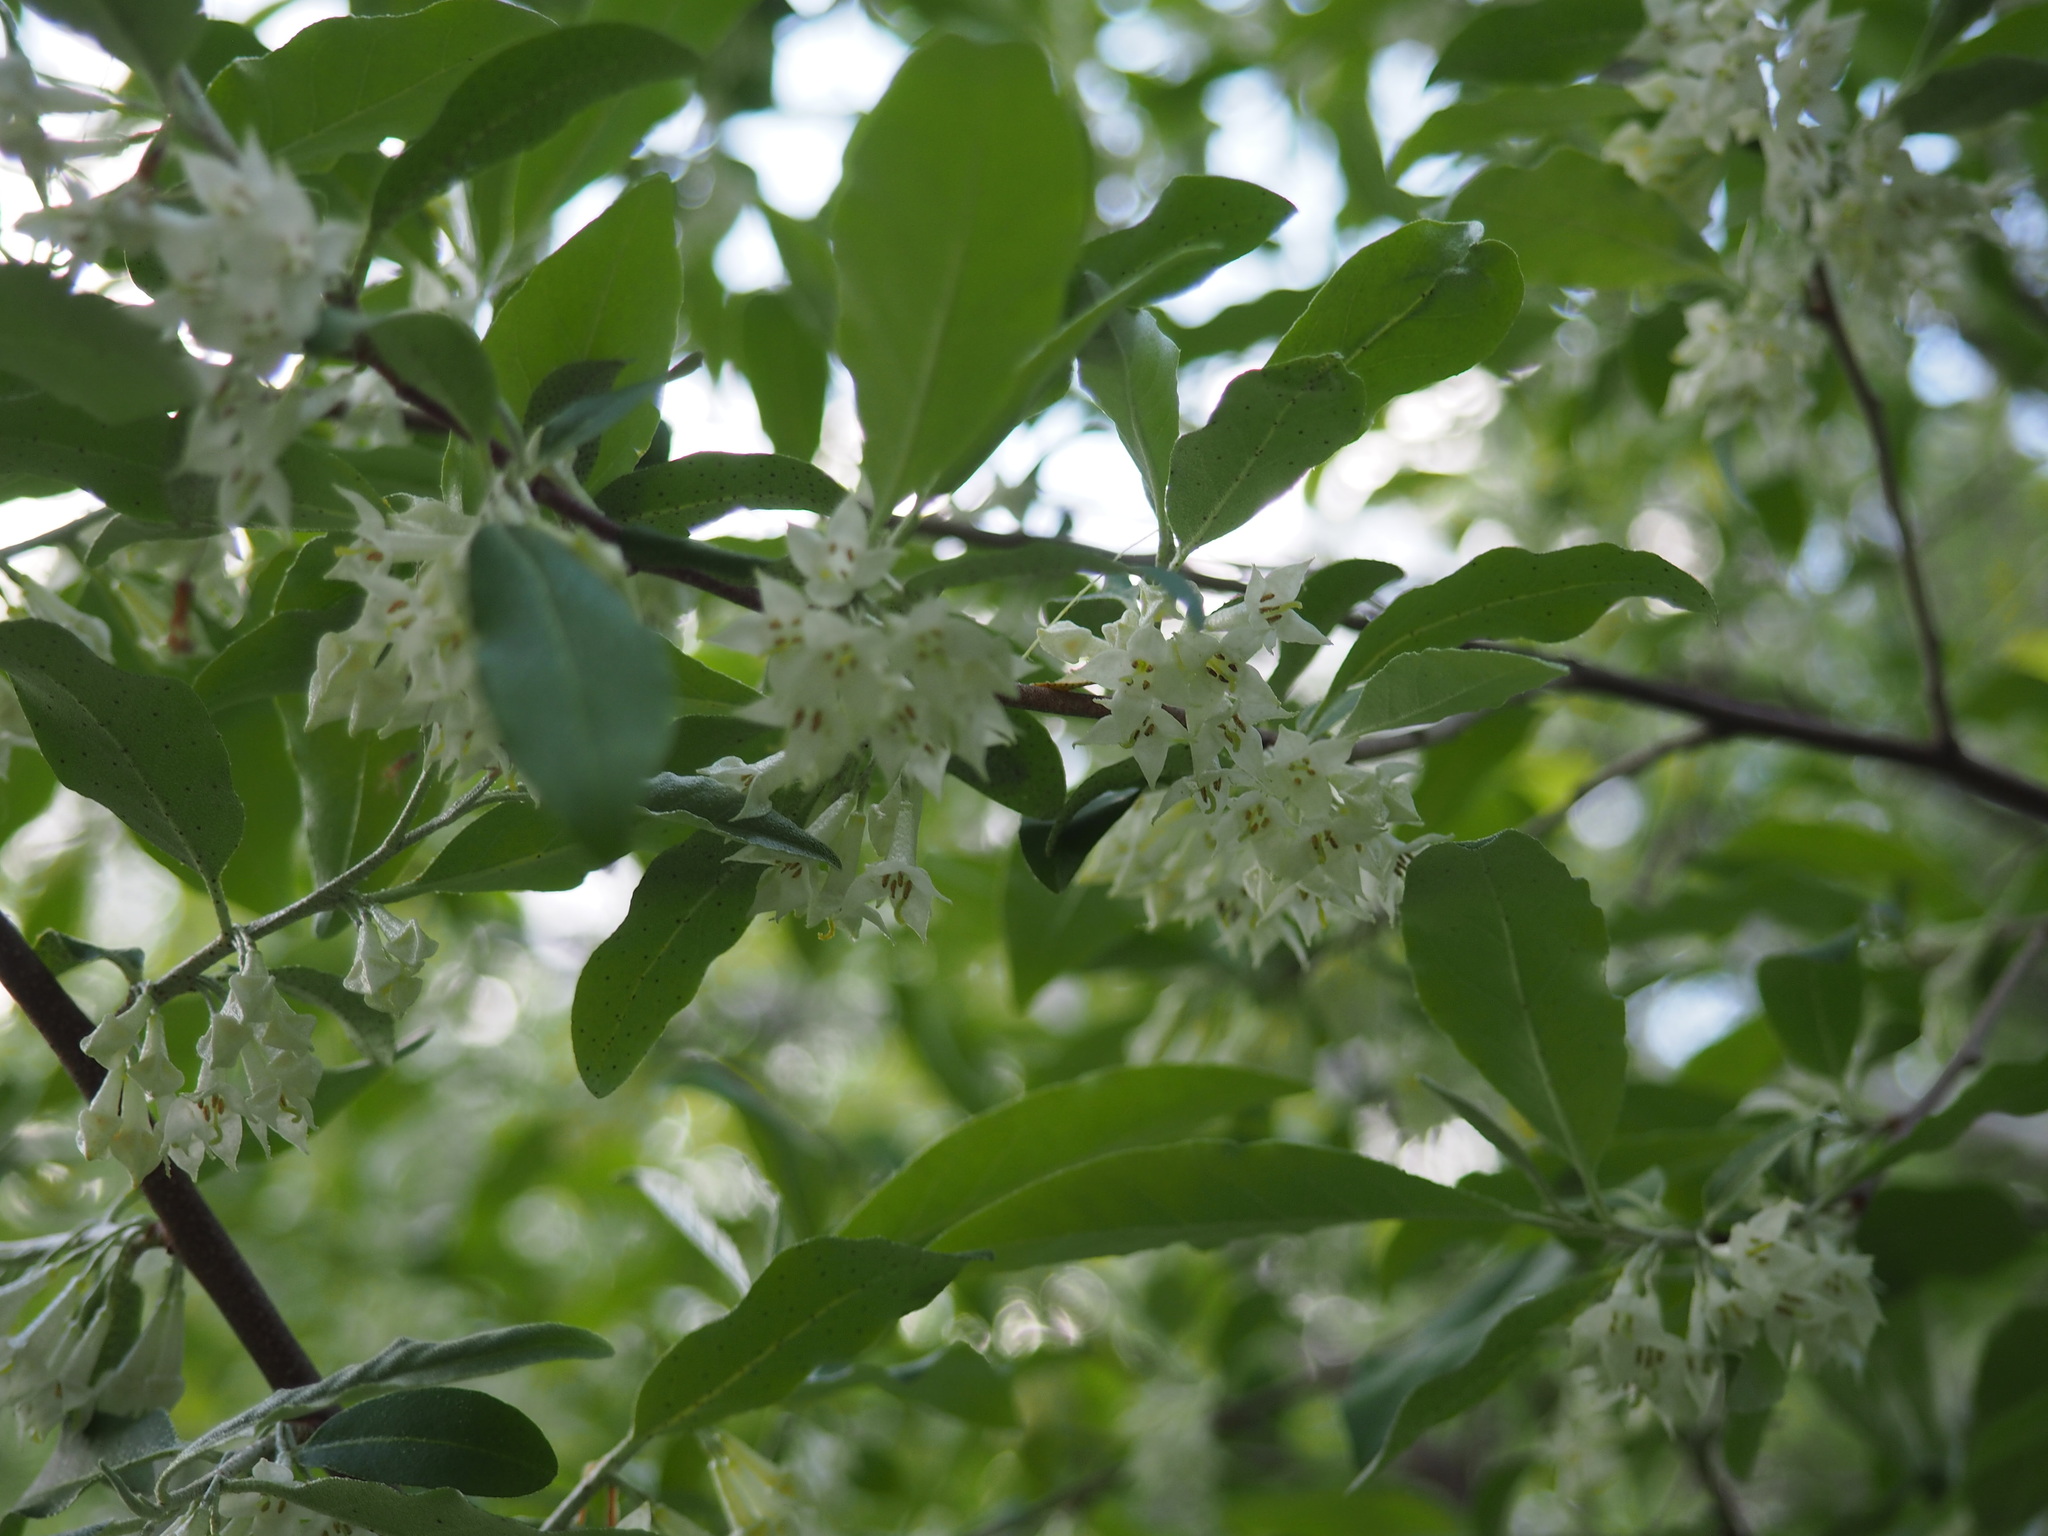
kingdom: Plantae
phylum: Tracheophyta
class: Magnoliopsida
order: Rosales
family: Elaeagnaceae
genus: Elaeagnus
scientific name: Elaeagnus umbellata
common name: Autumn olive
